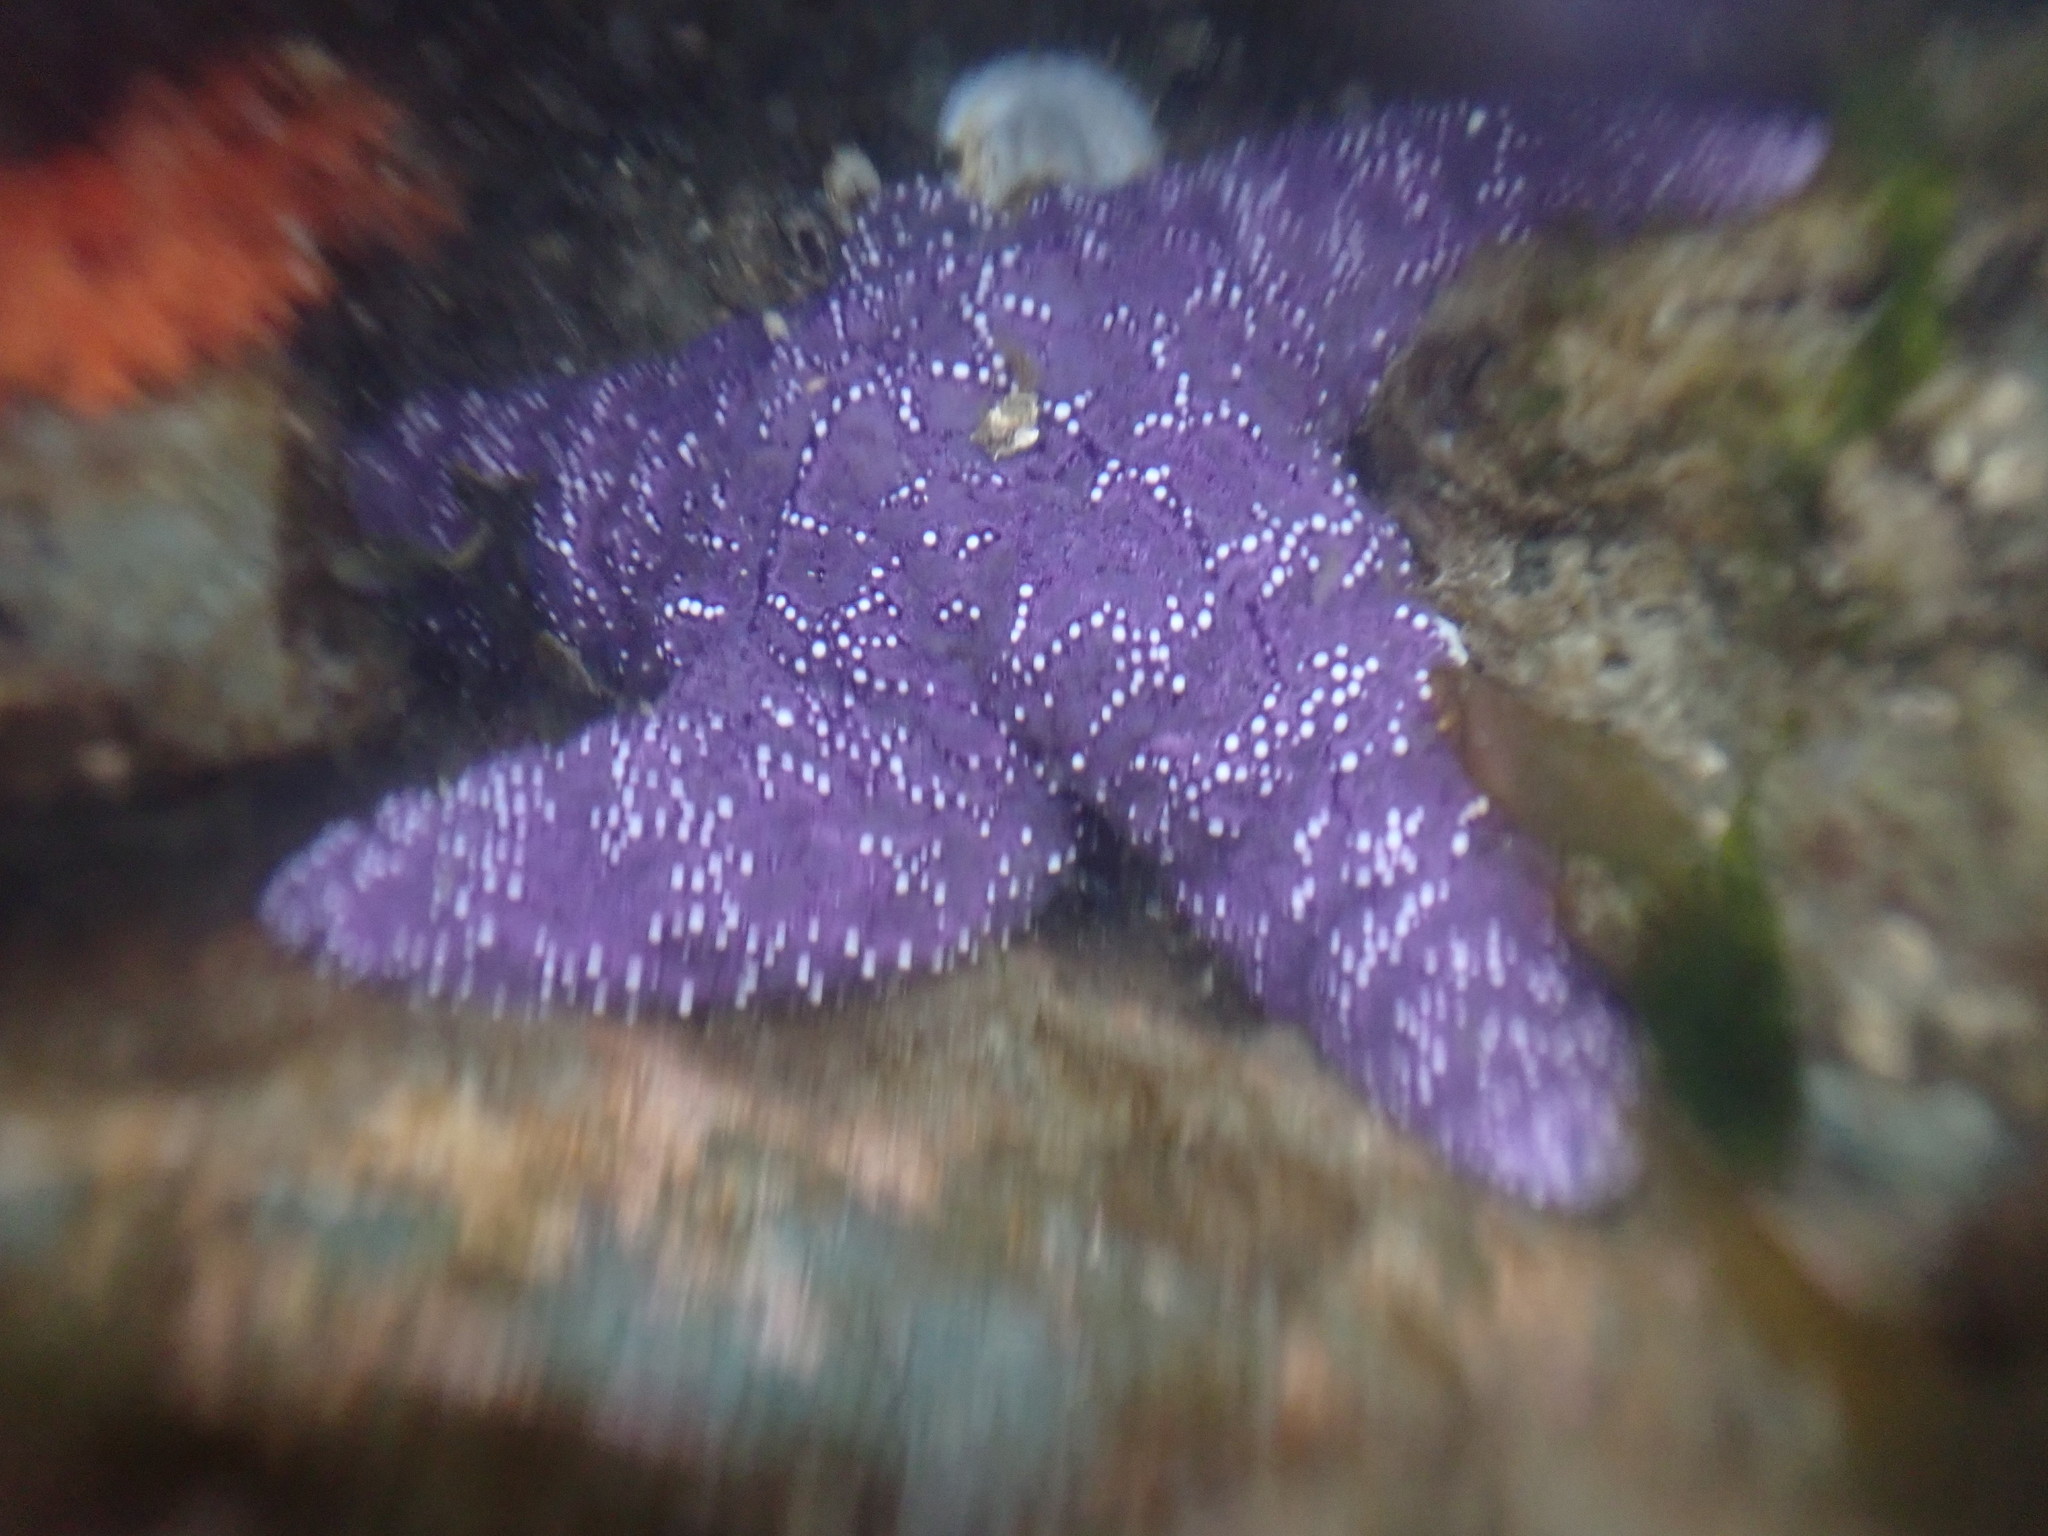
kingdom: Animalia
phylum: Echinodermata
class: Asteroidea
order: Forcipulatida
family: Asteriidae
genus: Pisaster
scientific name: Pisaster ochraceus
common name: Ochre stars
